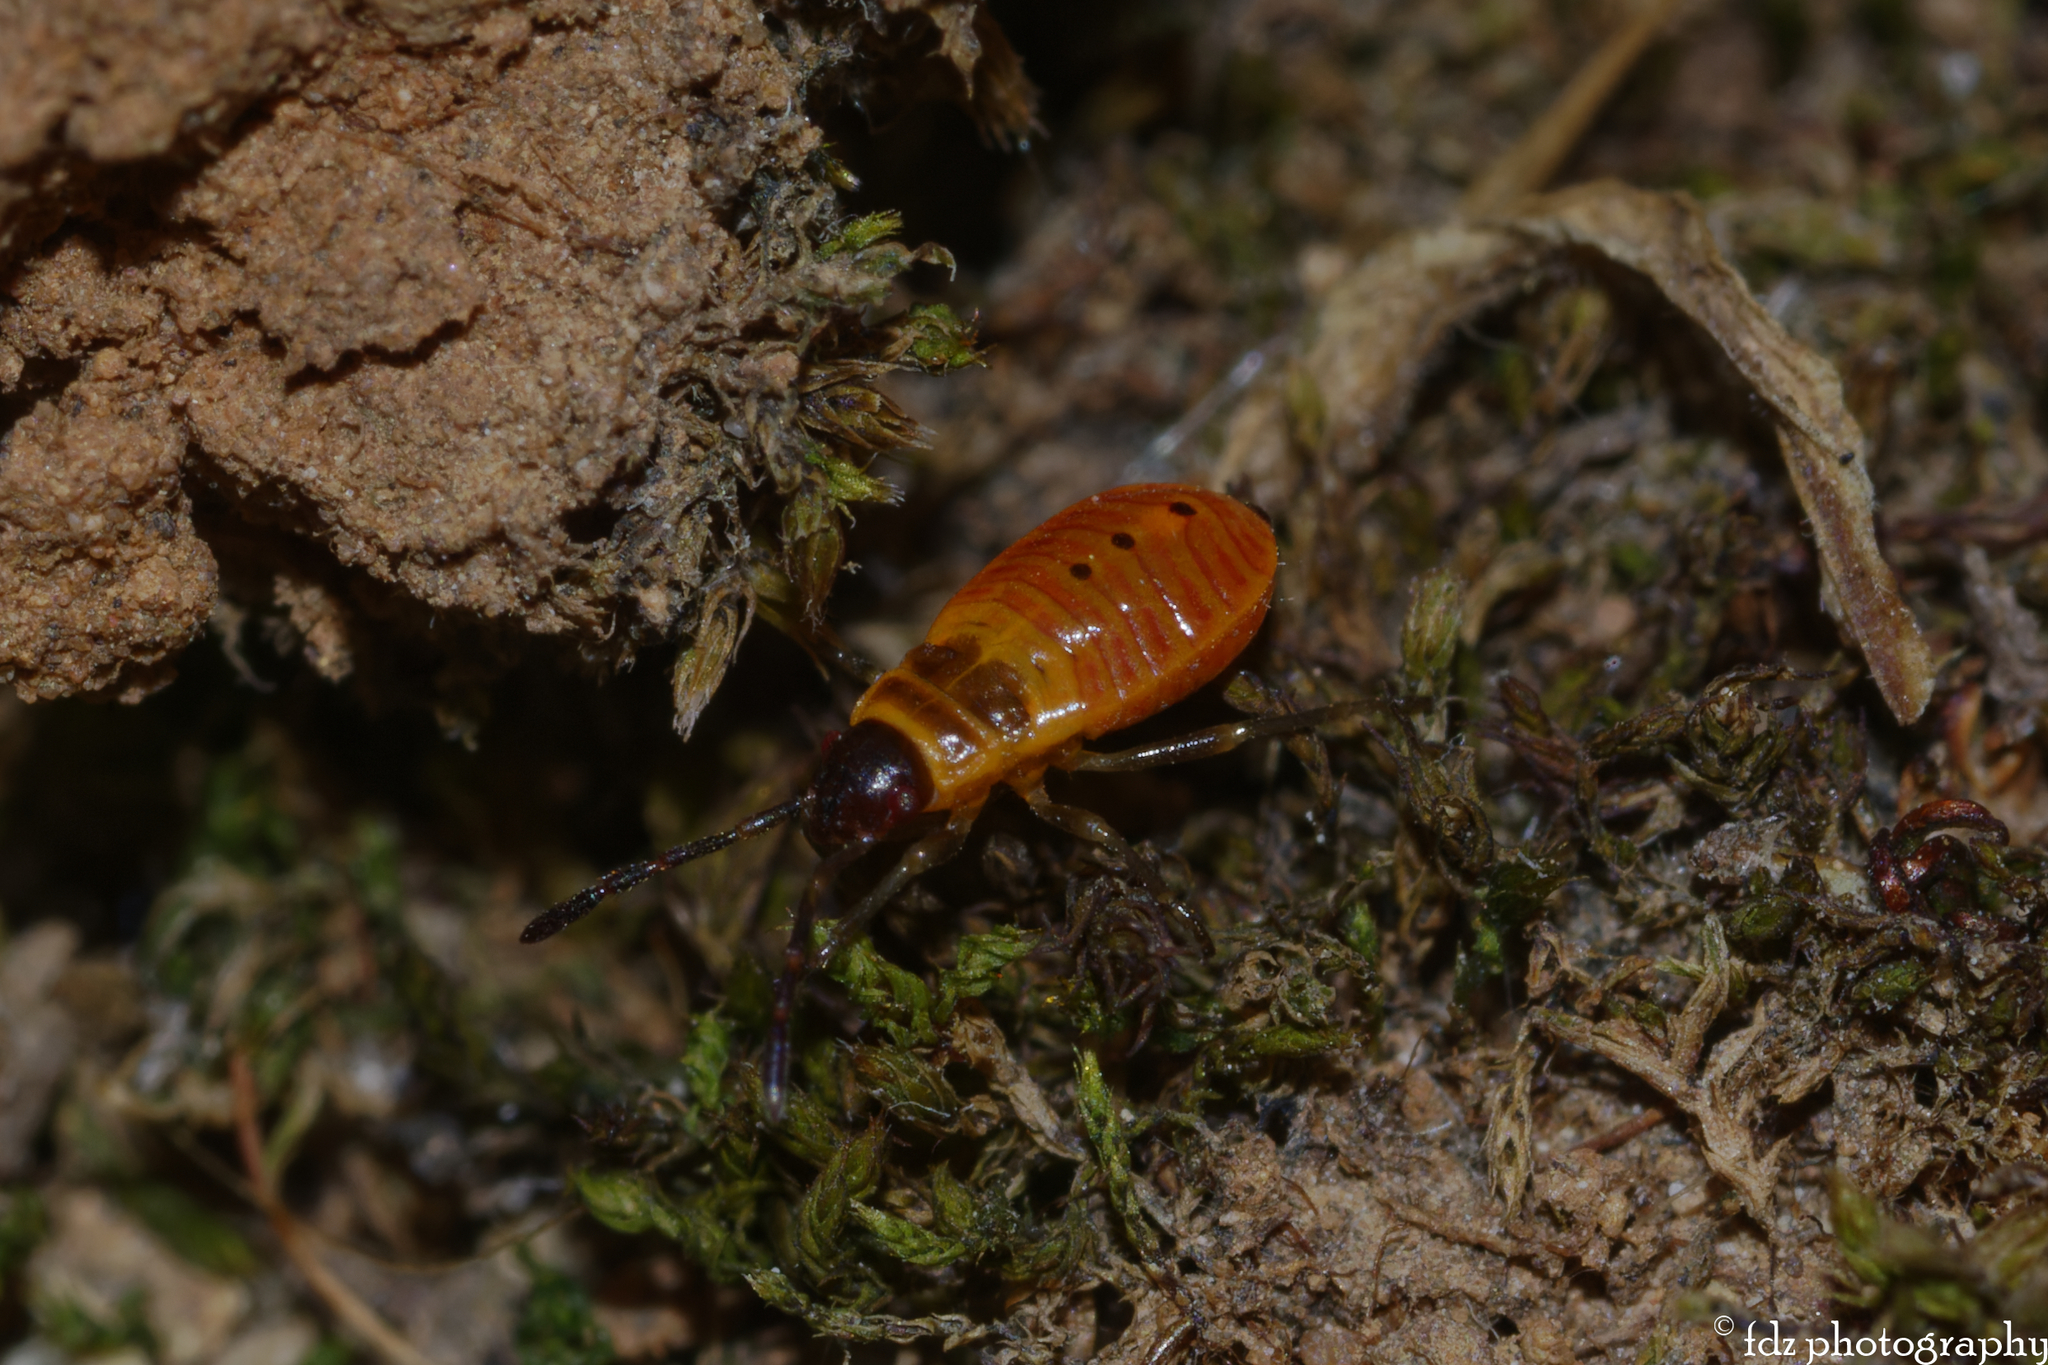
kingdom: Animalia
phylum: Arthropoda
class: Insecta
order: Hemiptera
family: Pyrrhocoridae
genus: Pyrrhocoris
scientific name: Pyrrhocoris apterus
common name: Firebug
